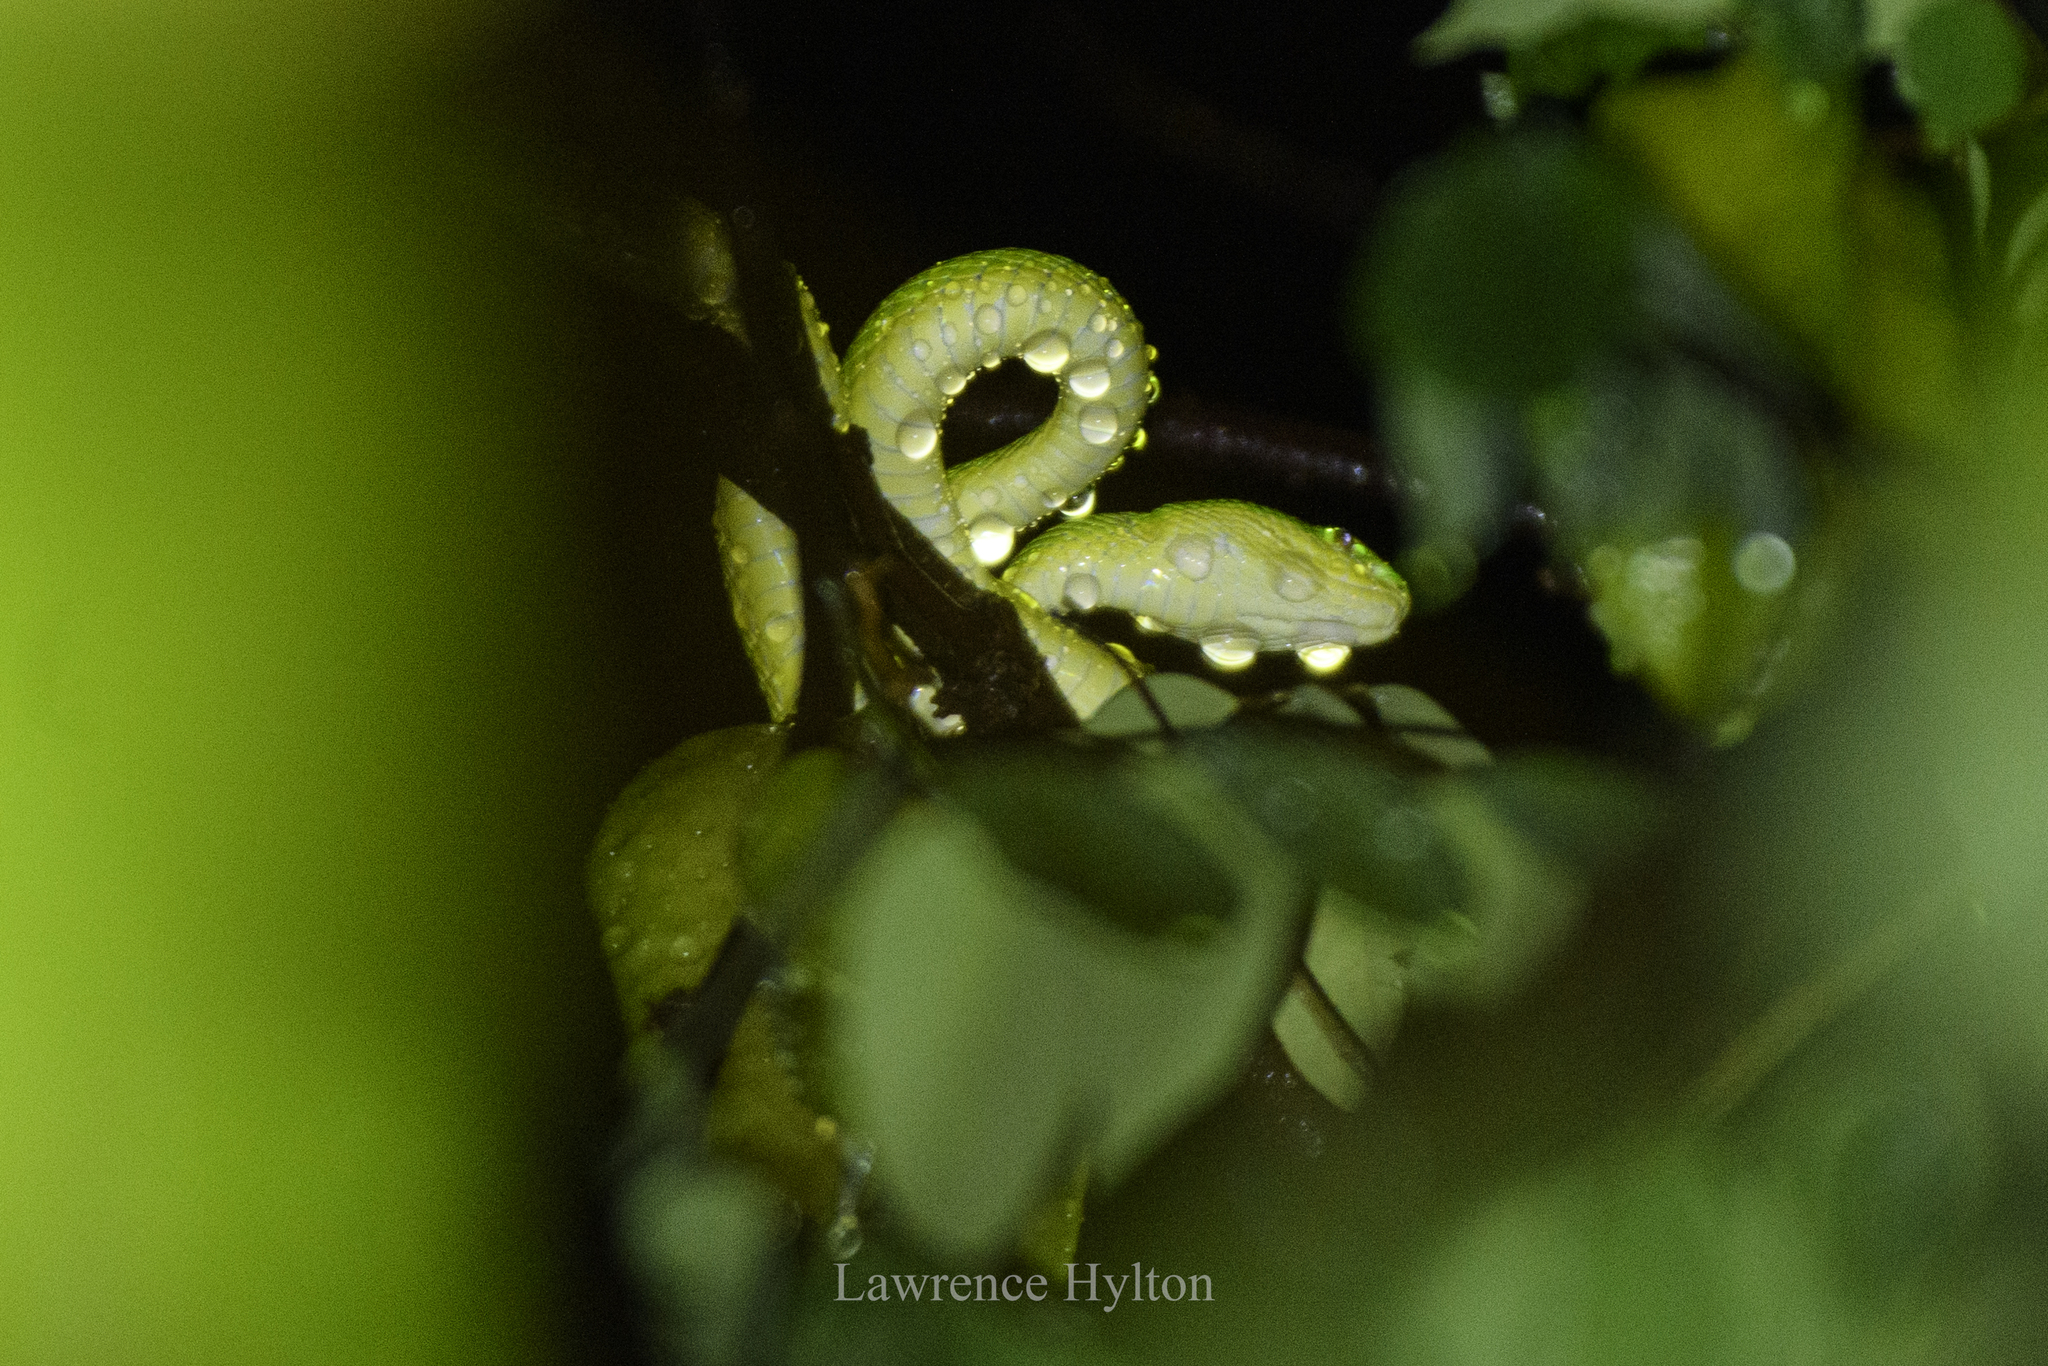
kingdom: Animalia
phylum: Chordata
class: Squamata
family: Viperidae
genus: Trimeresurus
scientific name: Trimeresurus albolabris
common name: White-lipped pitviper
